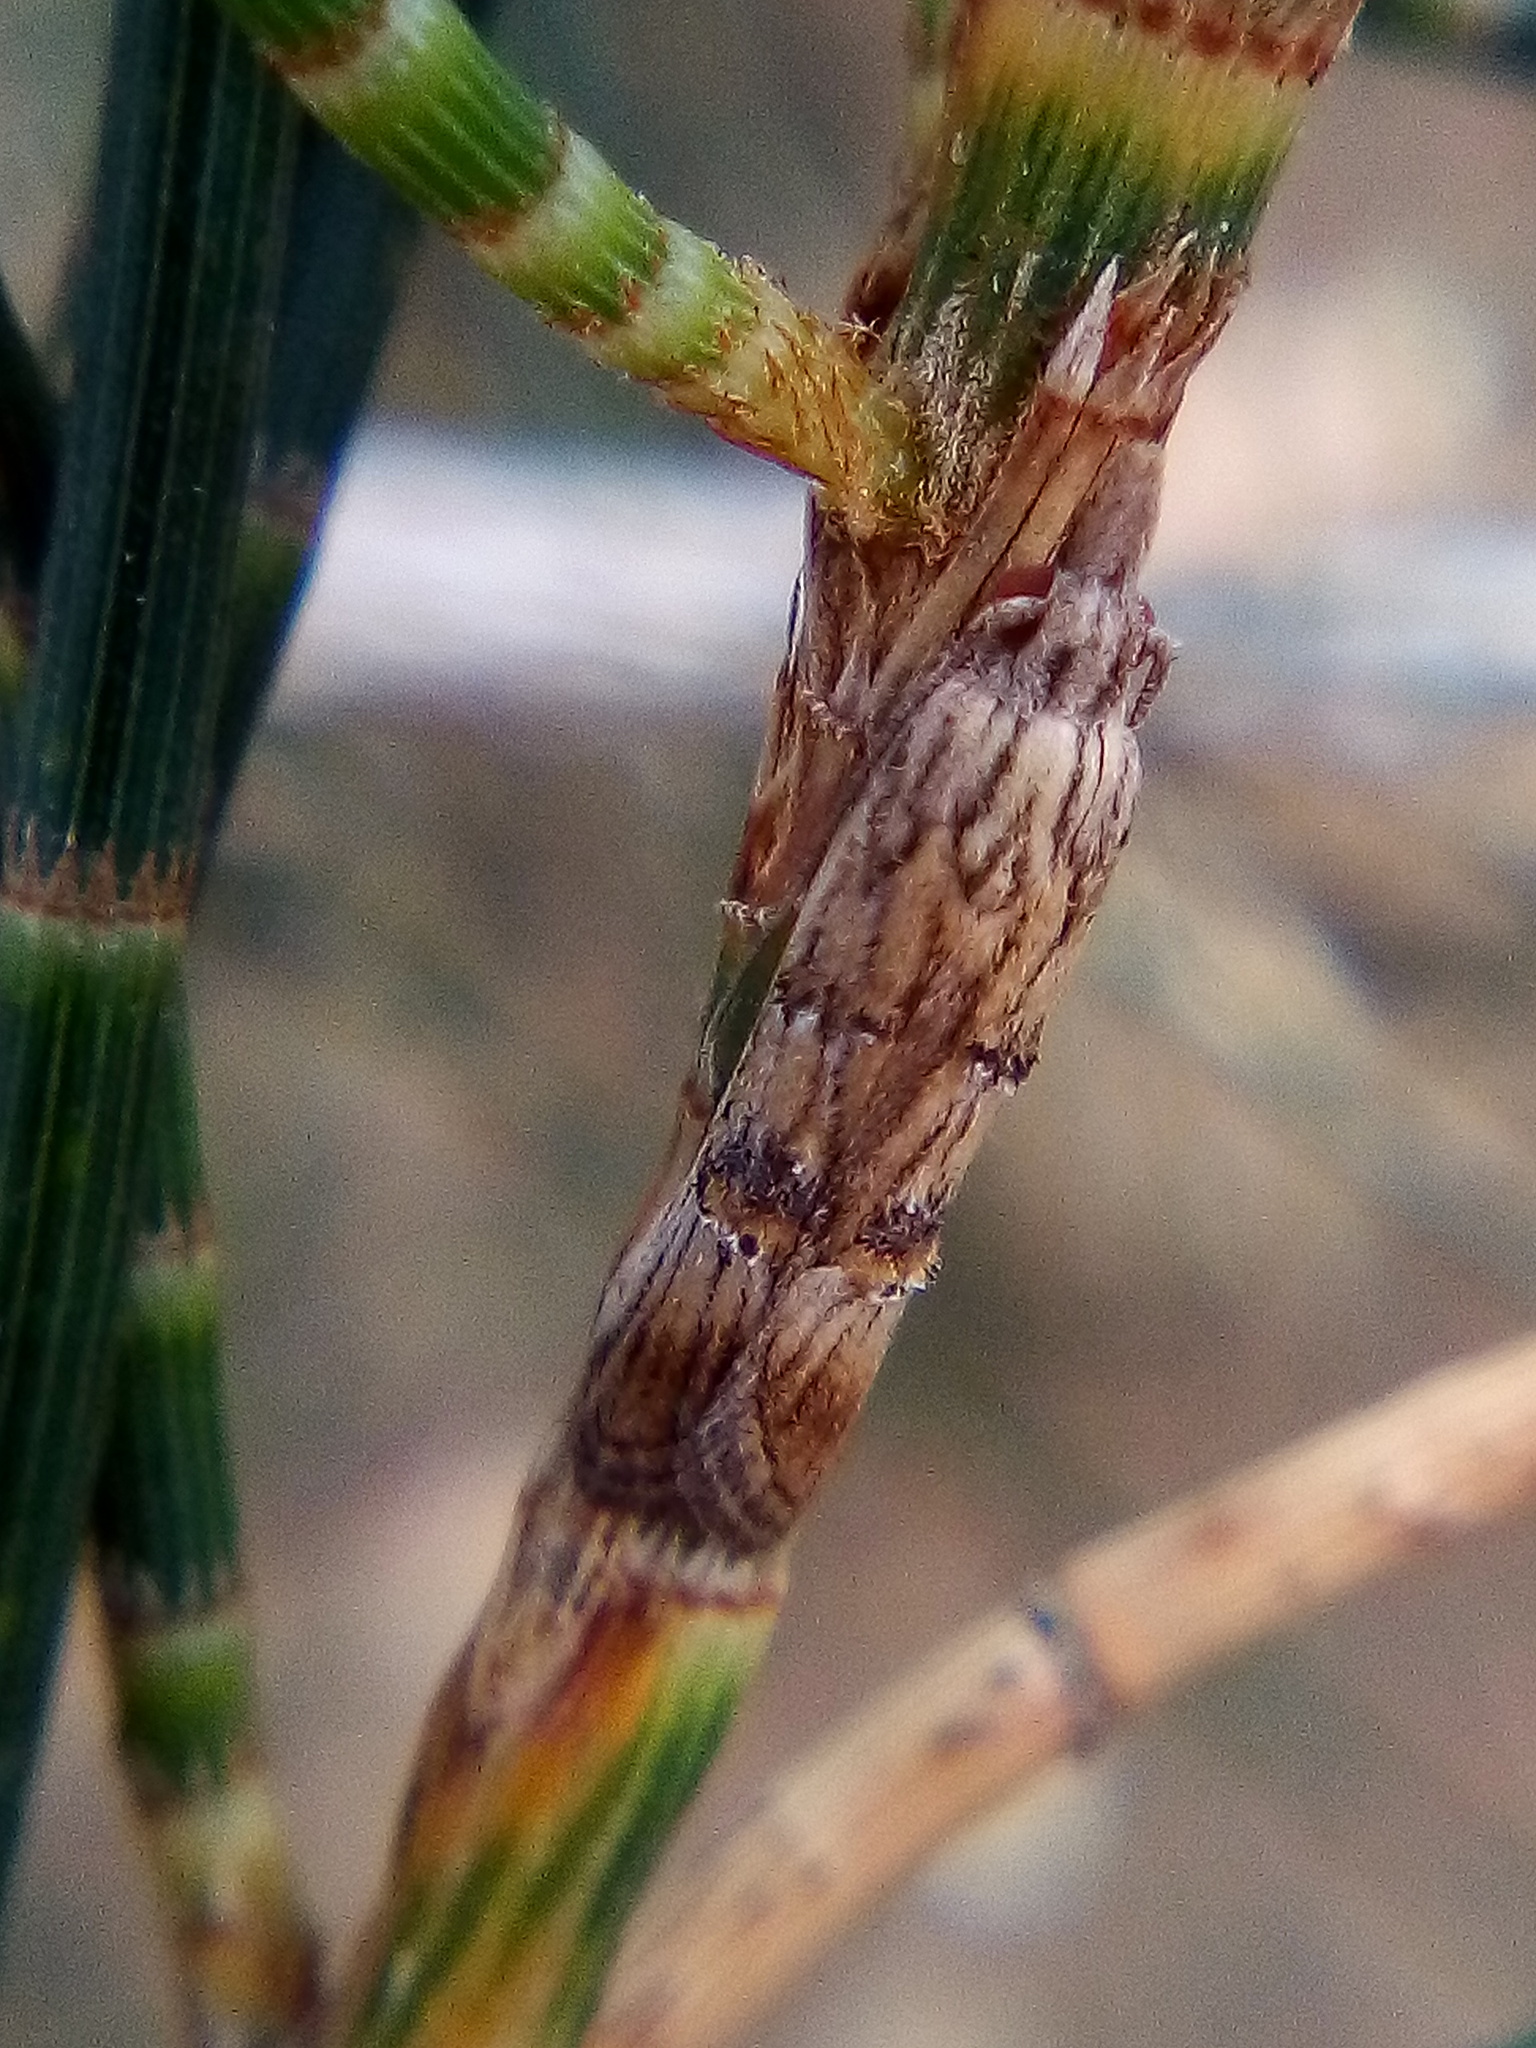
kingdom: Animalia
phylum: Arthropoda
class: Insecta
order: Lepidoptera
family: Carposinidae
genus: Carposina
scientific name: Carposina neurophorella
